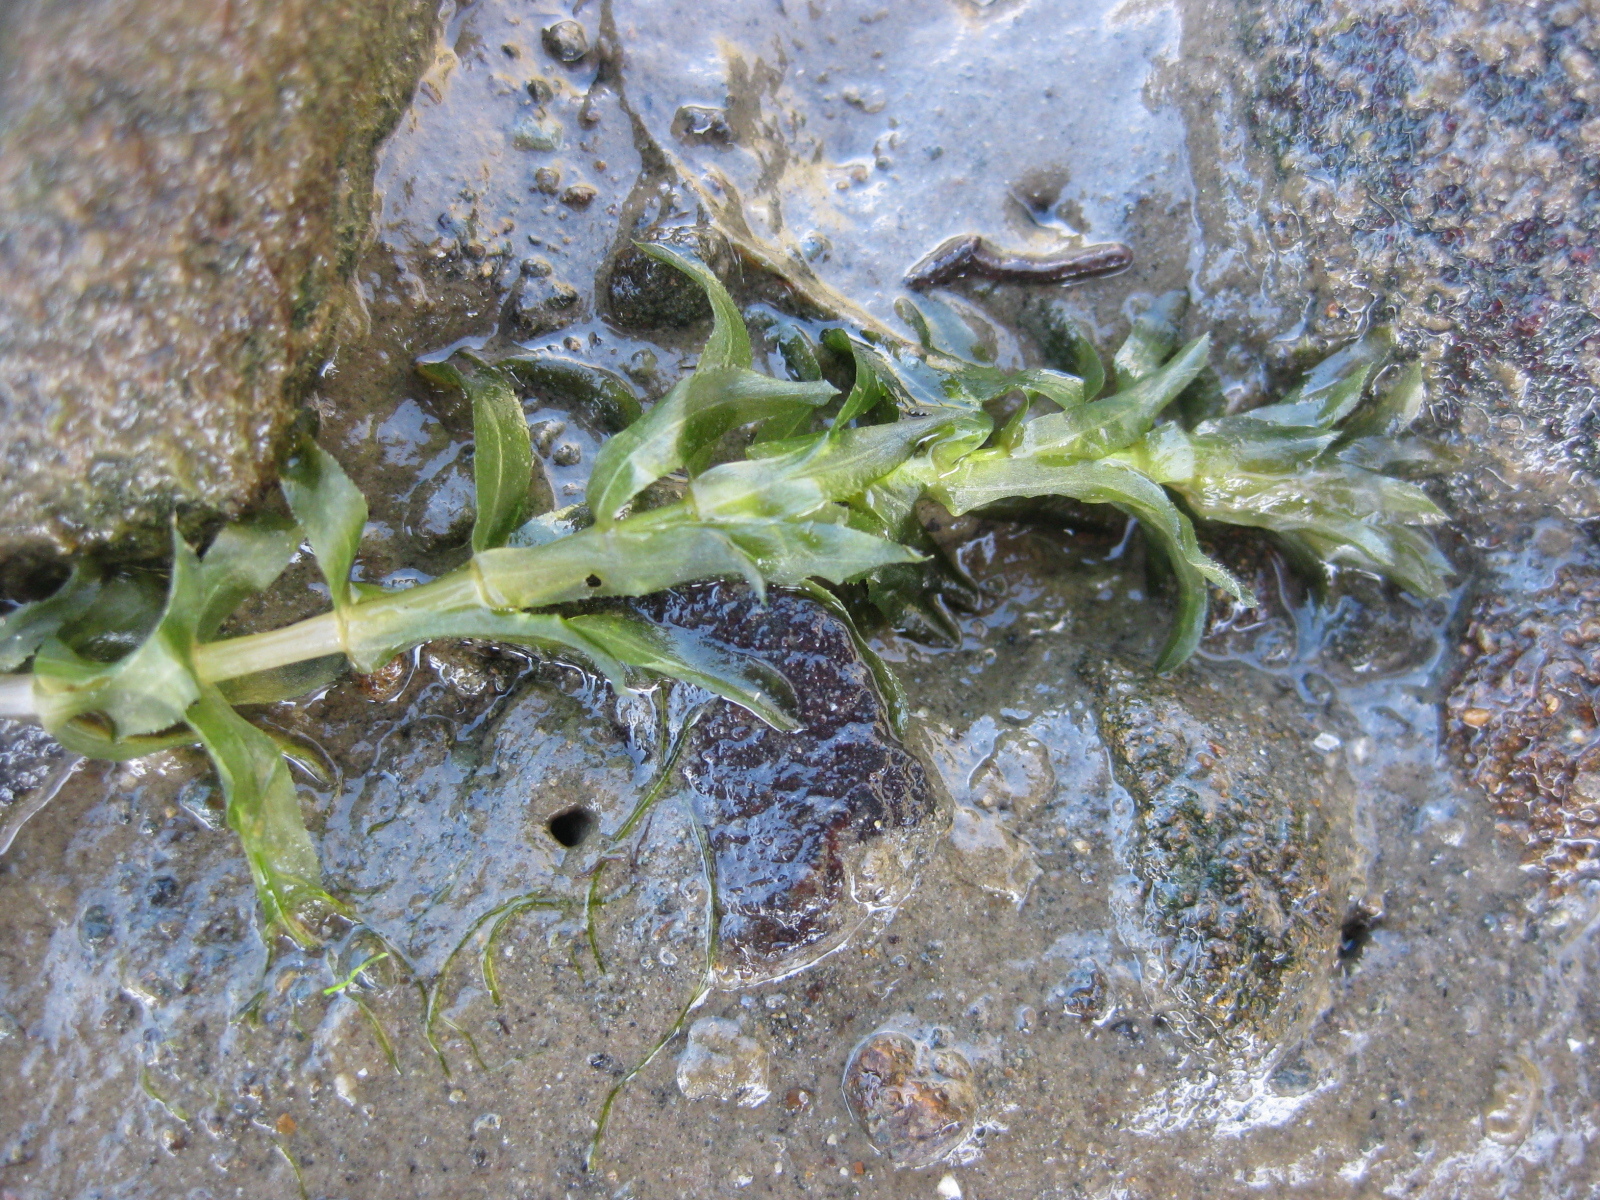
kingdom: Plantae
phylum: Tracheophyta
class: Liliopsida
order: Alismatales
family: Hydrocharitaceae
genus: Elodea
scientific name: Elodea densa
